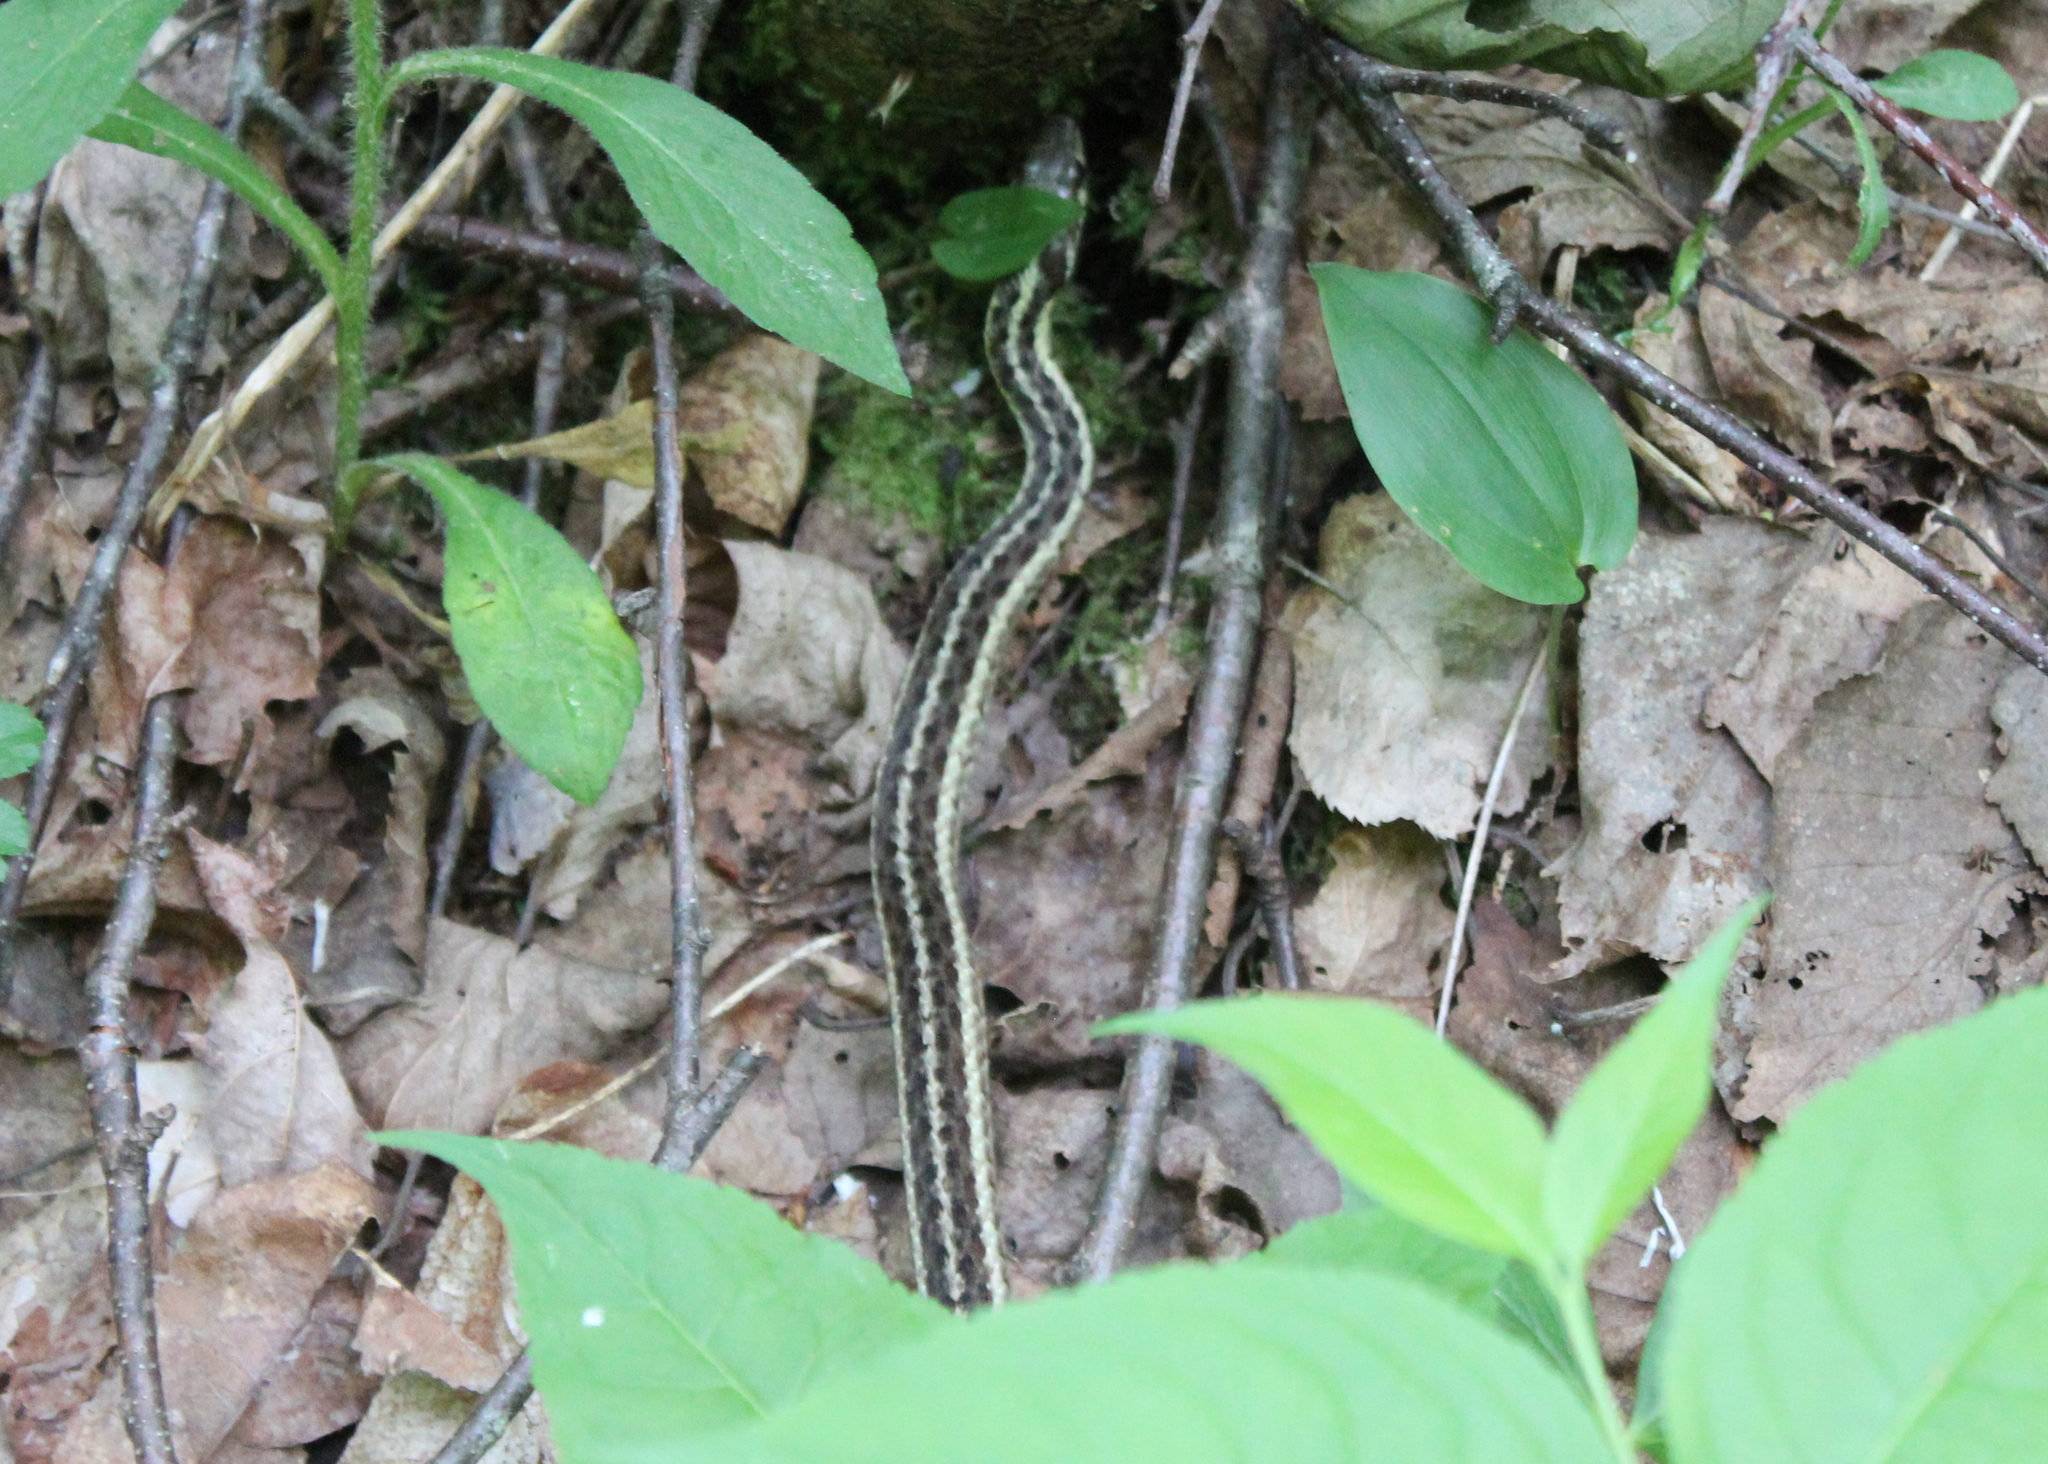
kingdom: Animalia
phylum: Chordata
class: Squamata
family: Colubridae
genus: Thamnophis
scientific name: Thamnophis sirtalis
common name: Common garter snake
